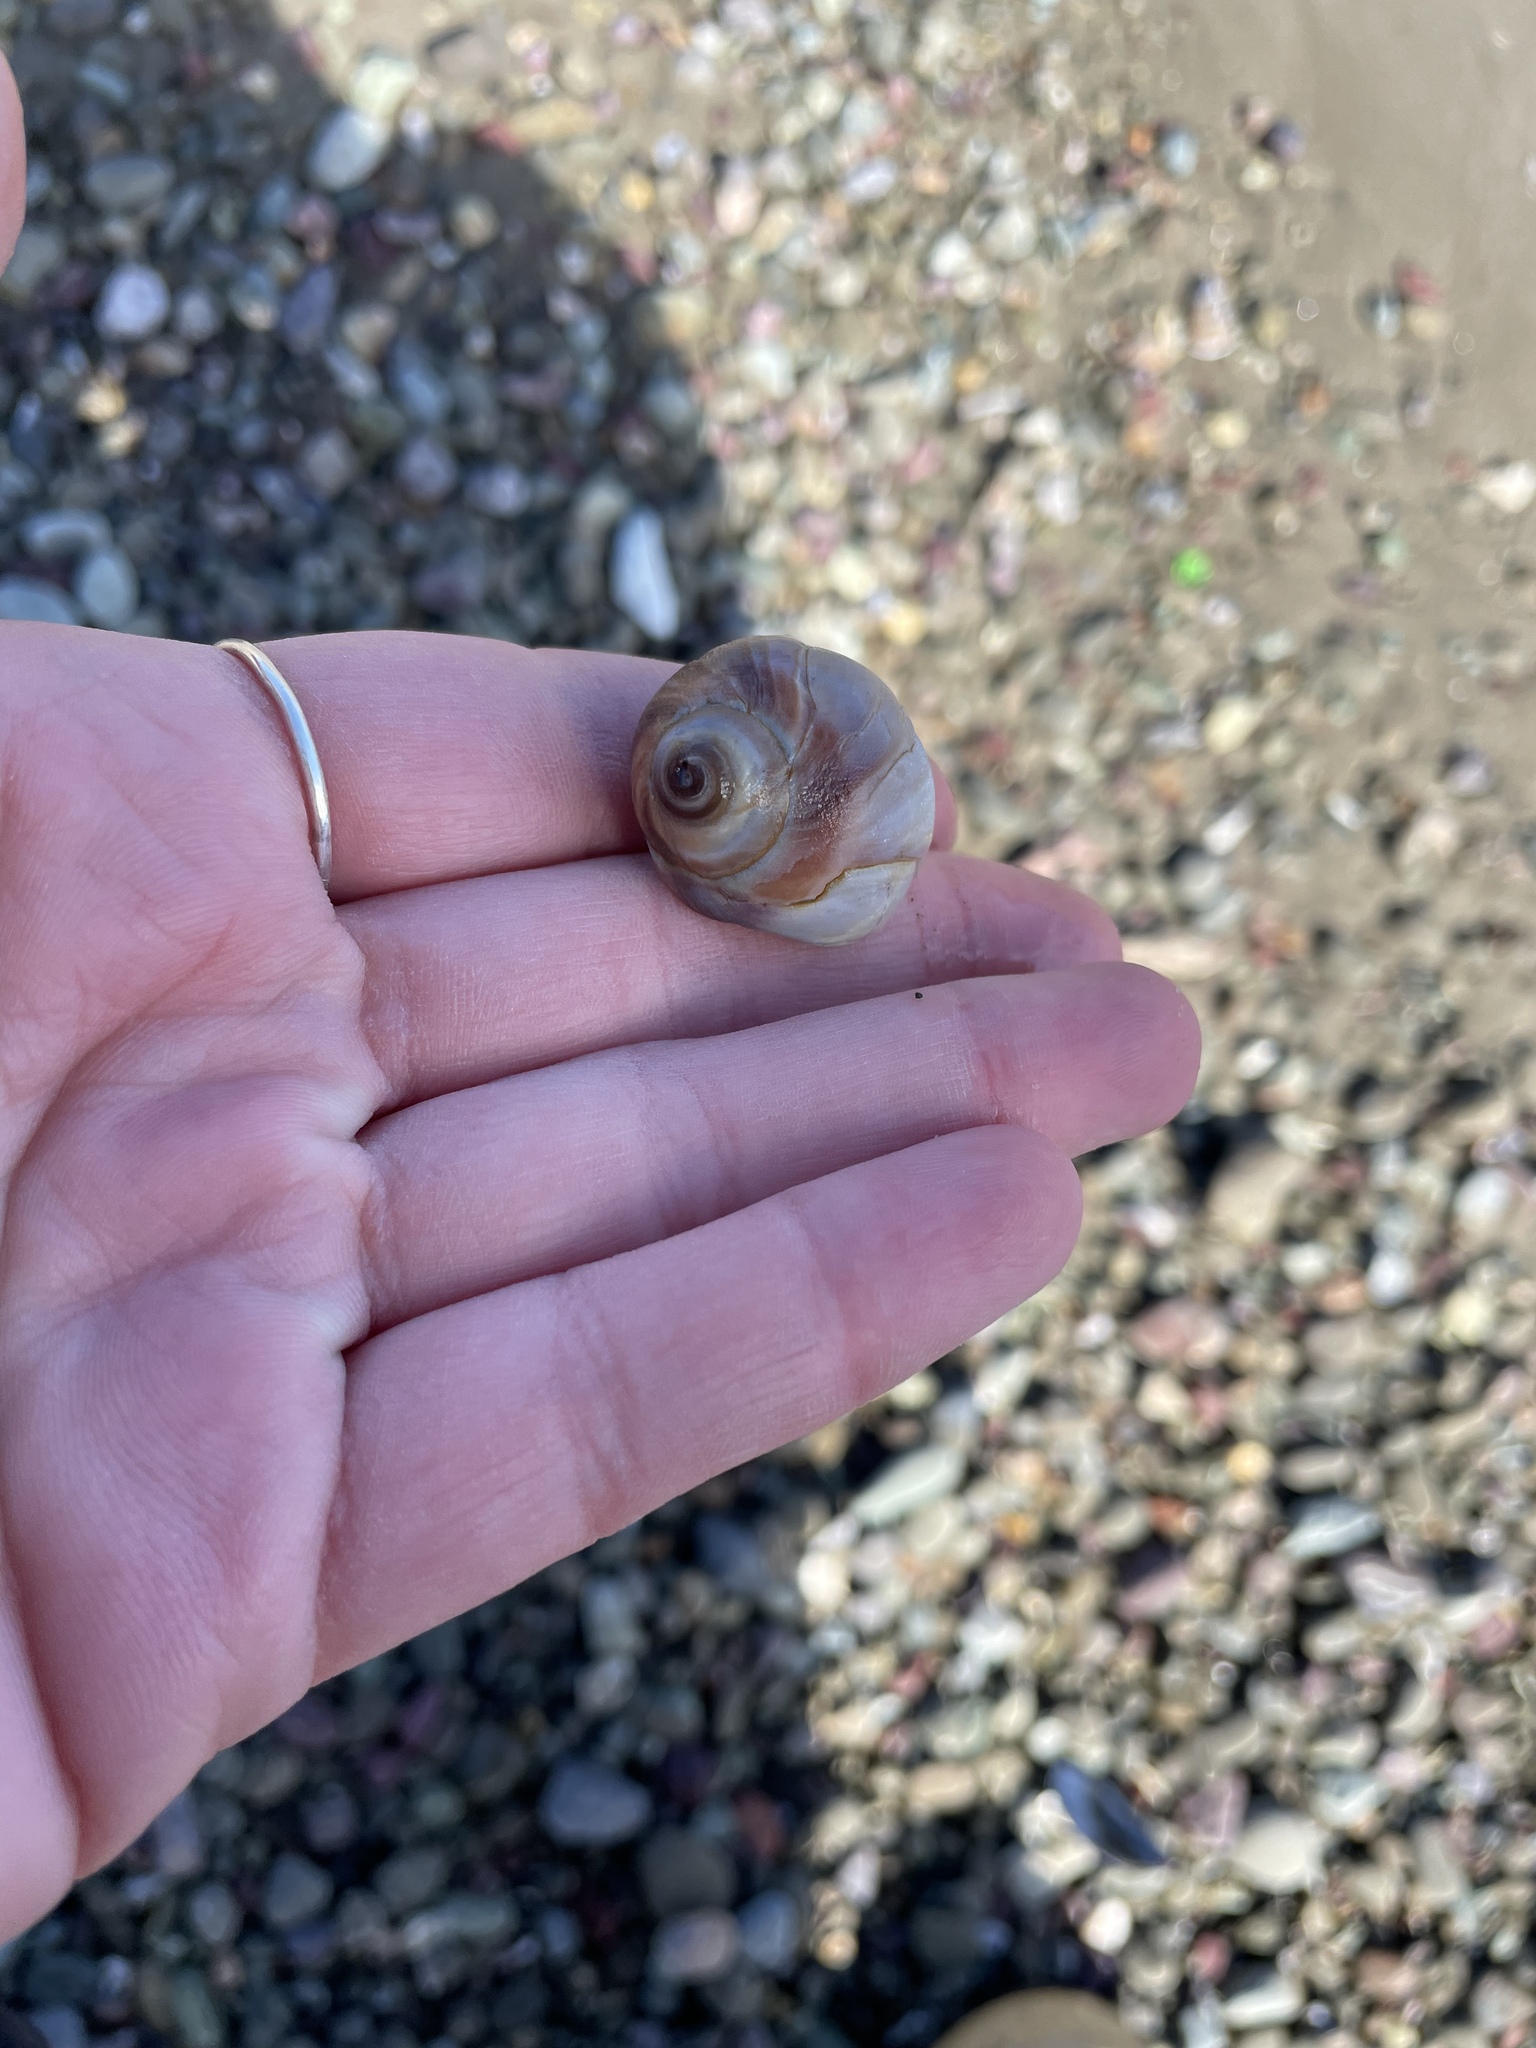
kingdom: Animalia
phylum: Mollusca
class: Bivalvia
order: Venerida
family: Mactridae
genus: Spisula
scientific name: Spisula solidissima
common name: Atlantic surf clam
